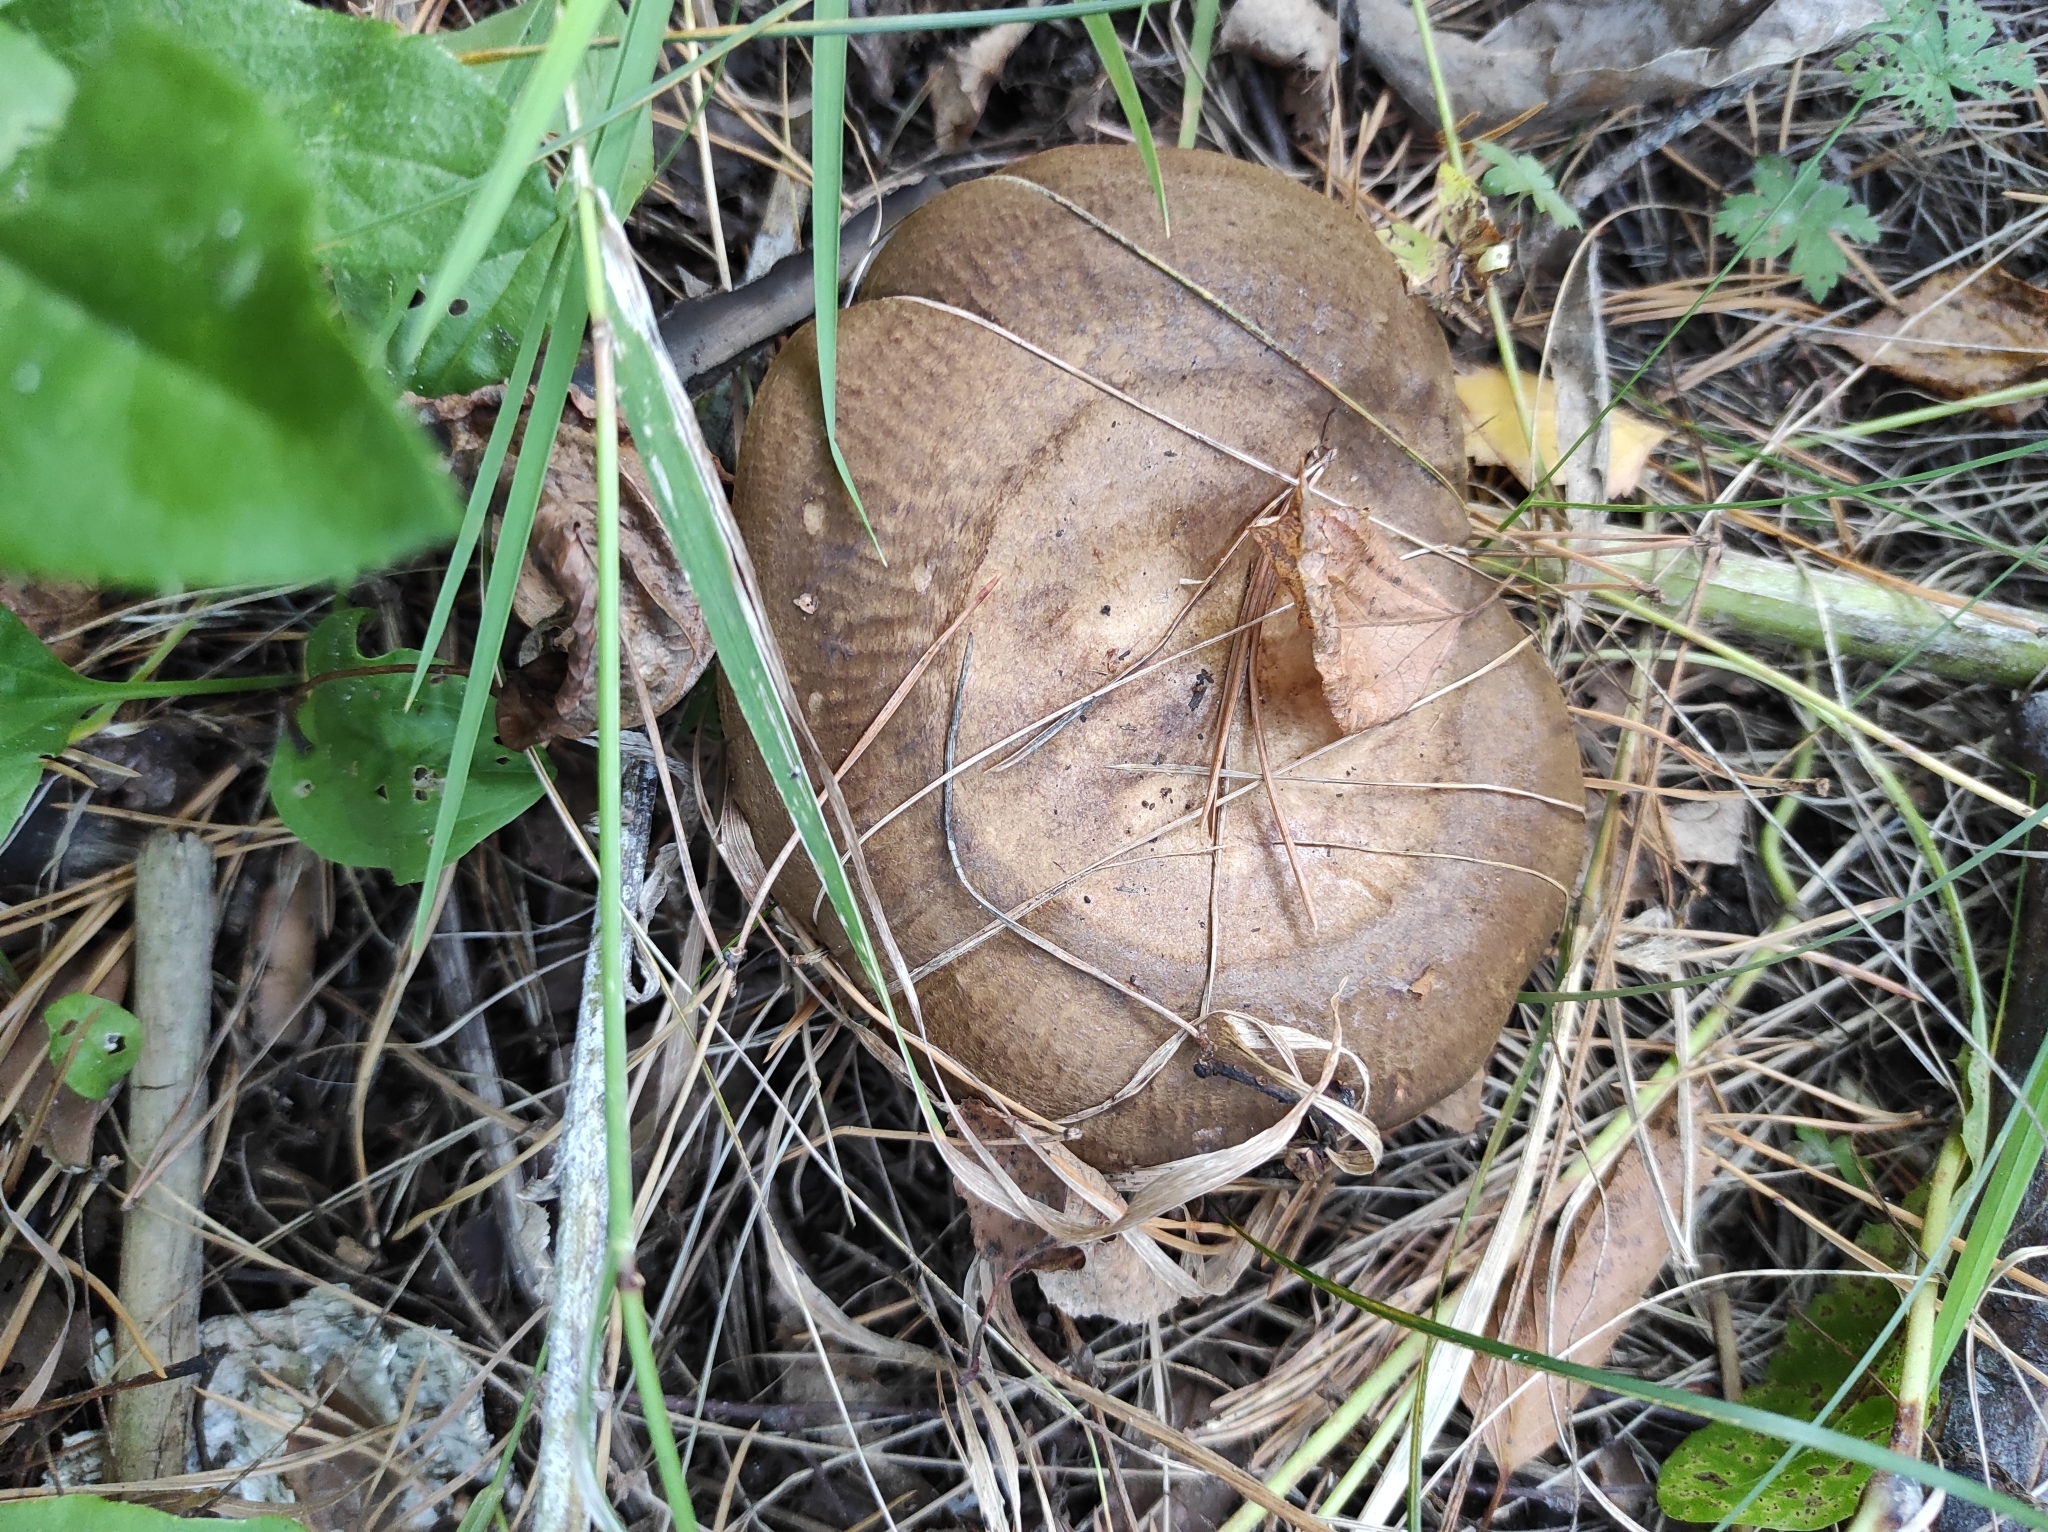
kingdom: Fungi
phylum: Basidiomycota
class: Agaricomycetes
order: Boletales
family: Paxillaceae
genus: Paxillus
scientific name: Paxillus involutus
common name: Brown roll rim
